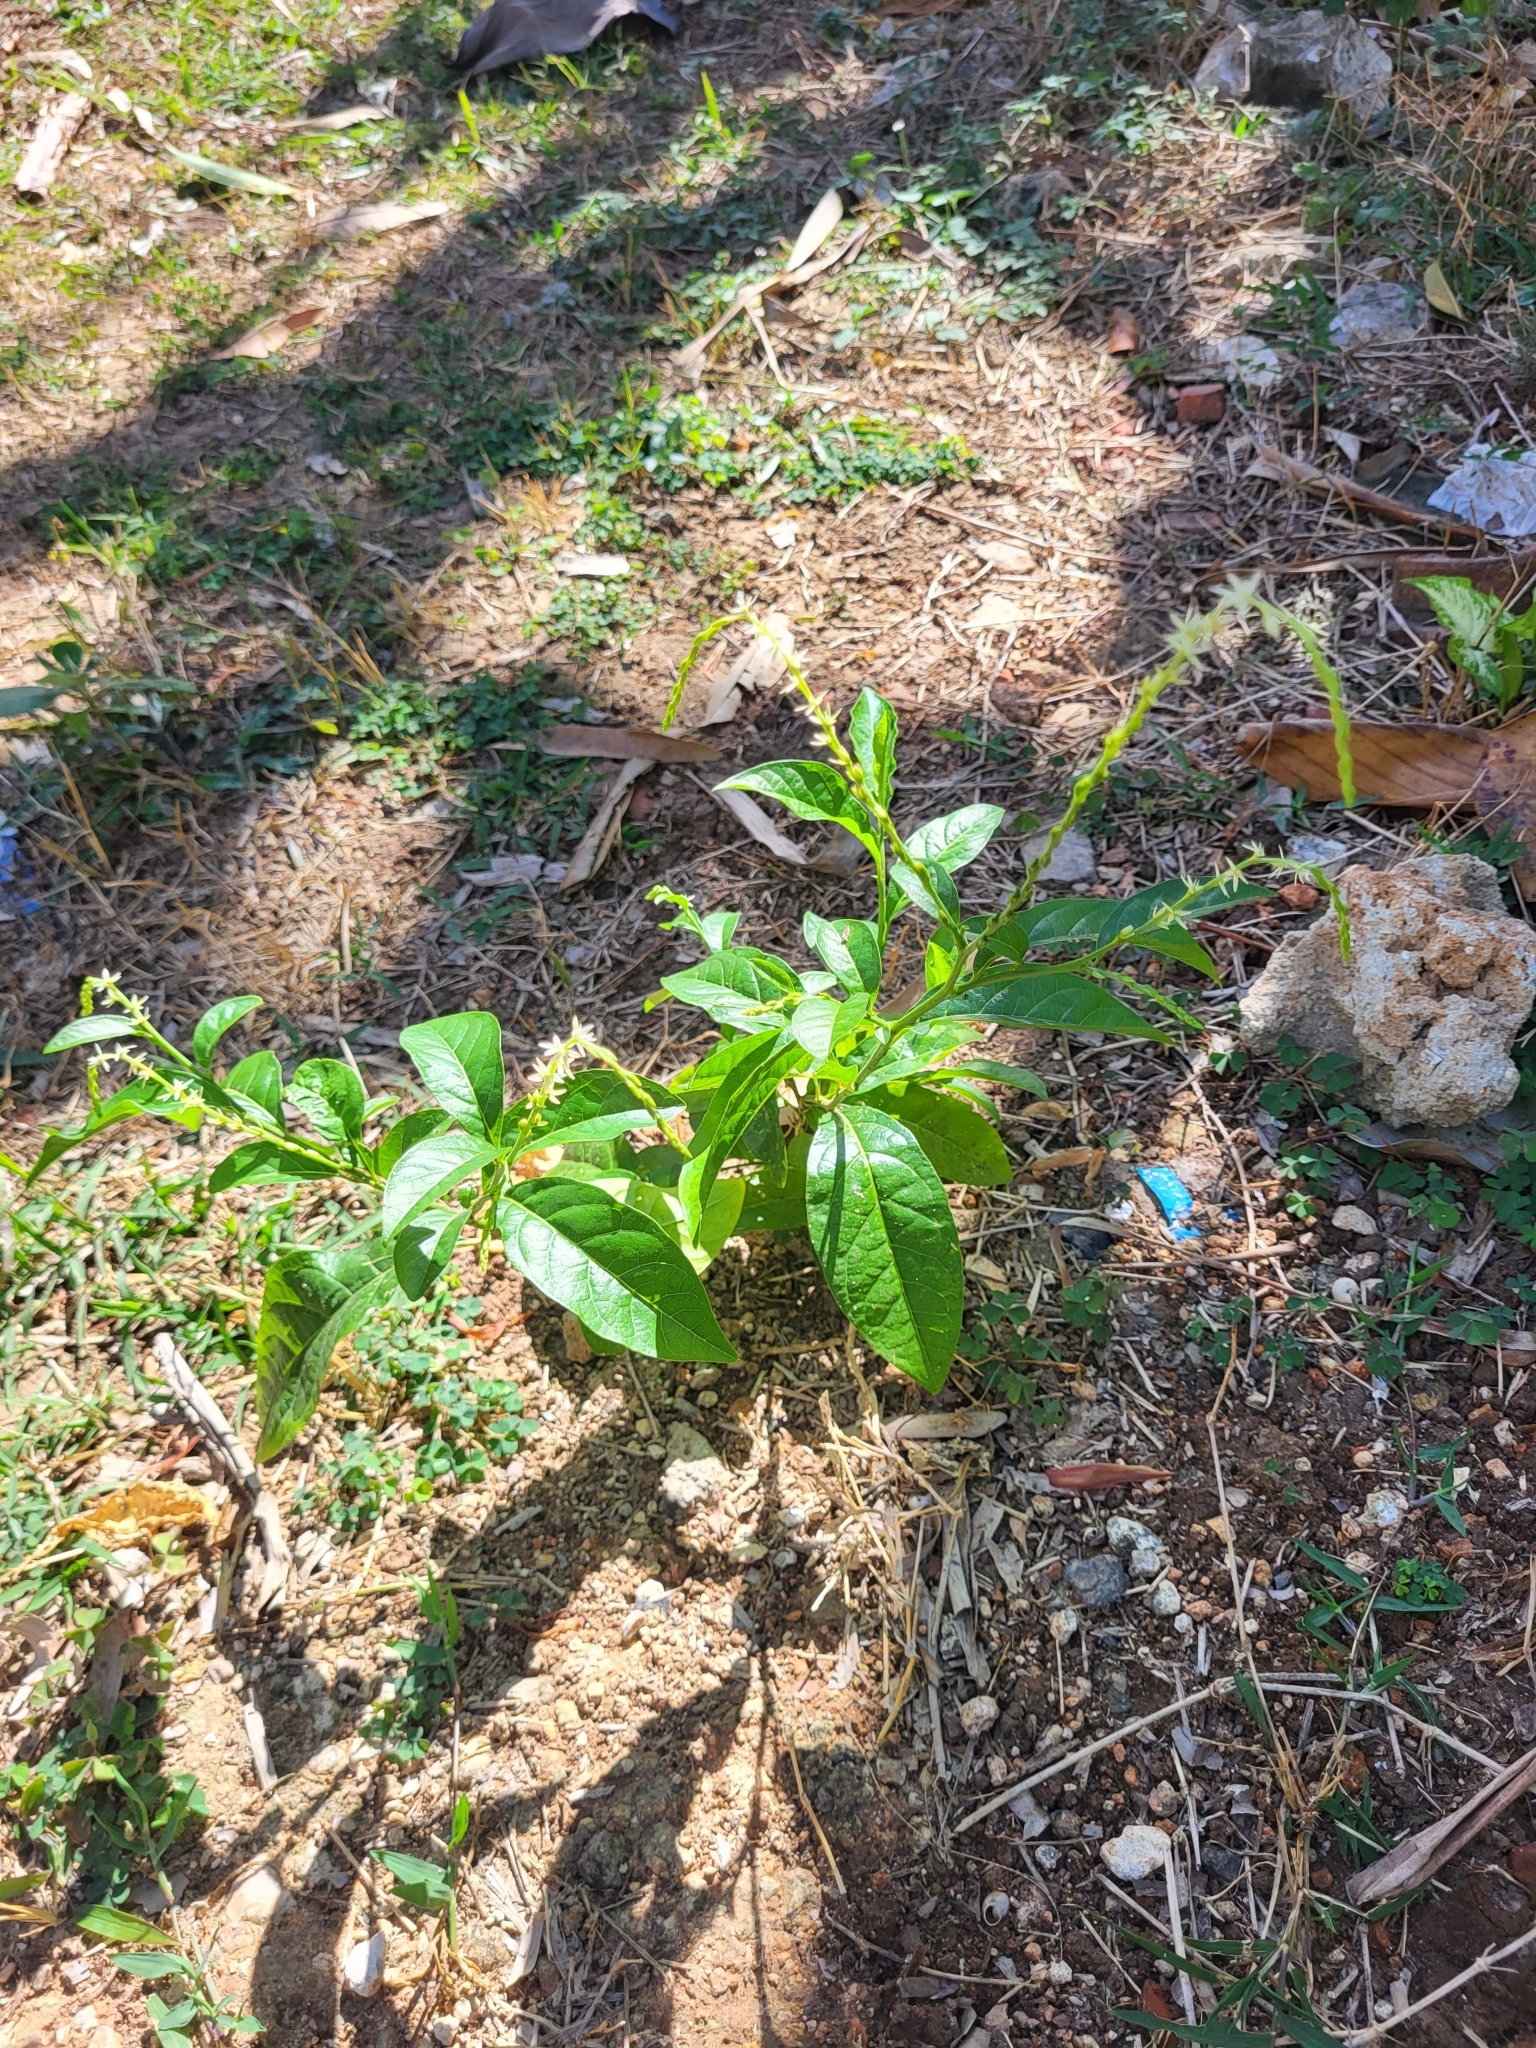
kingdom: Plantae
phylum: Tracheophyta
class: Magnoliopsida
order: Caryophyllales
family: Phytolaccaceae
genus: Petiveria
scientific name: Petiveria alliacea
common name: Garlicweed
